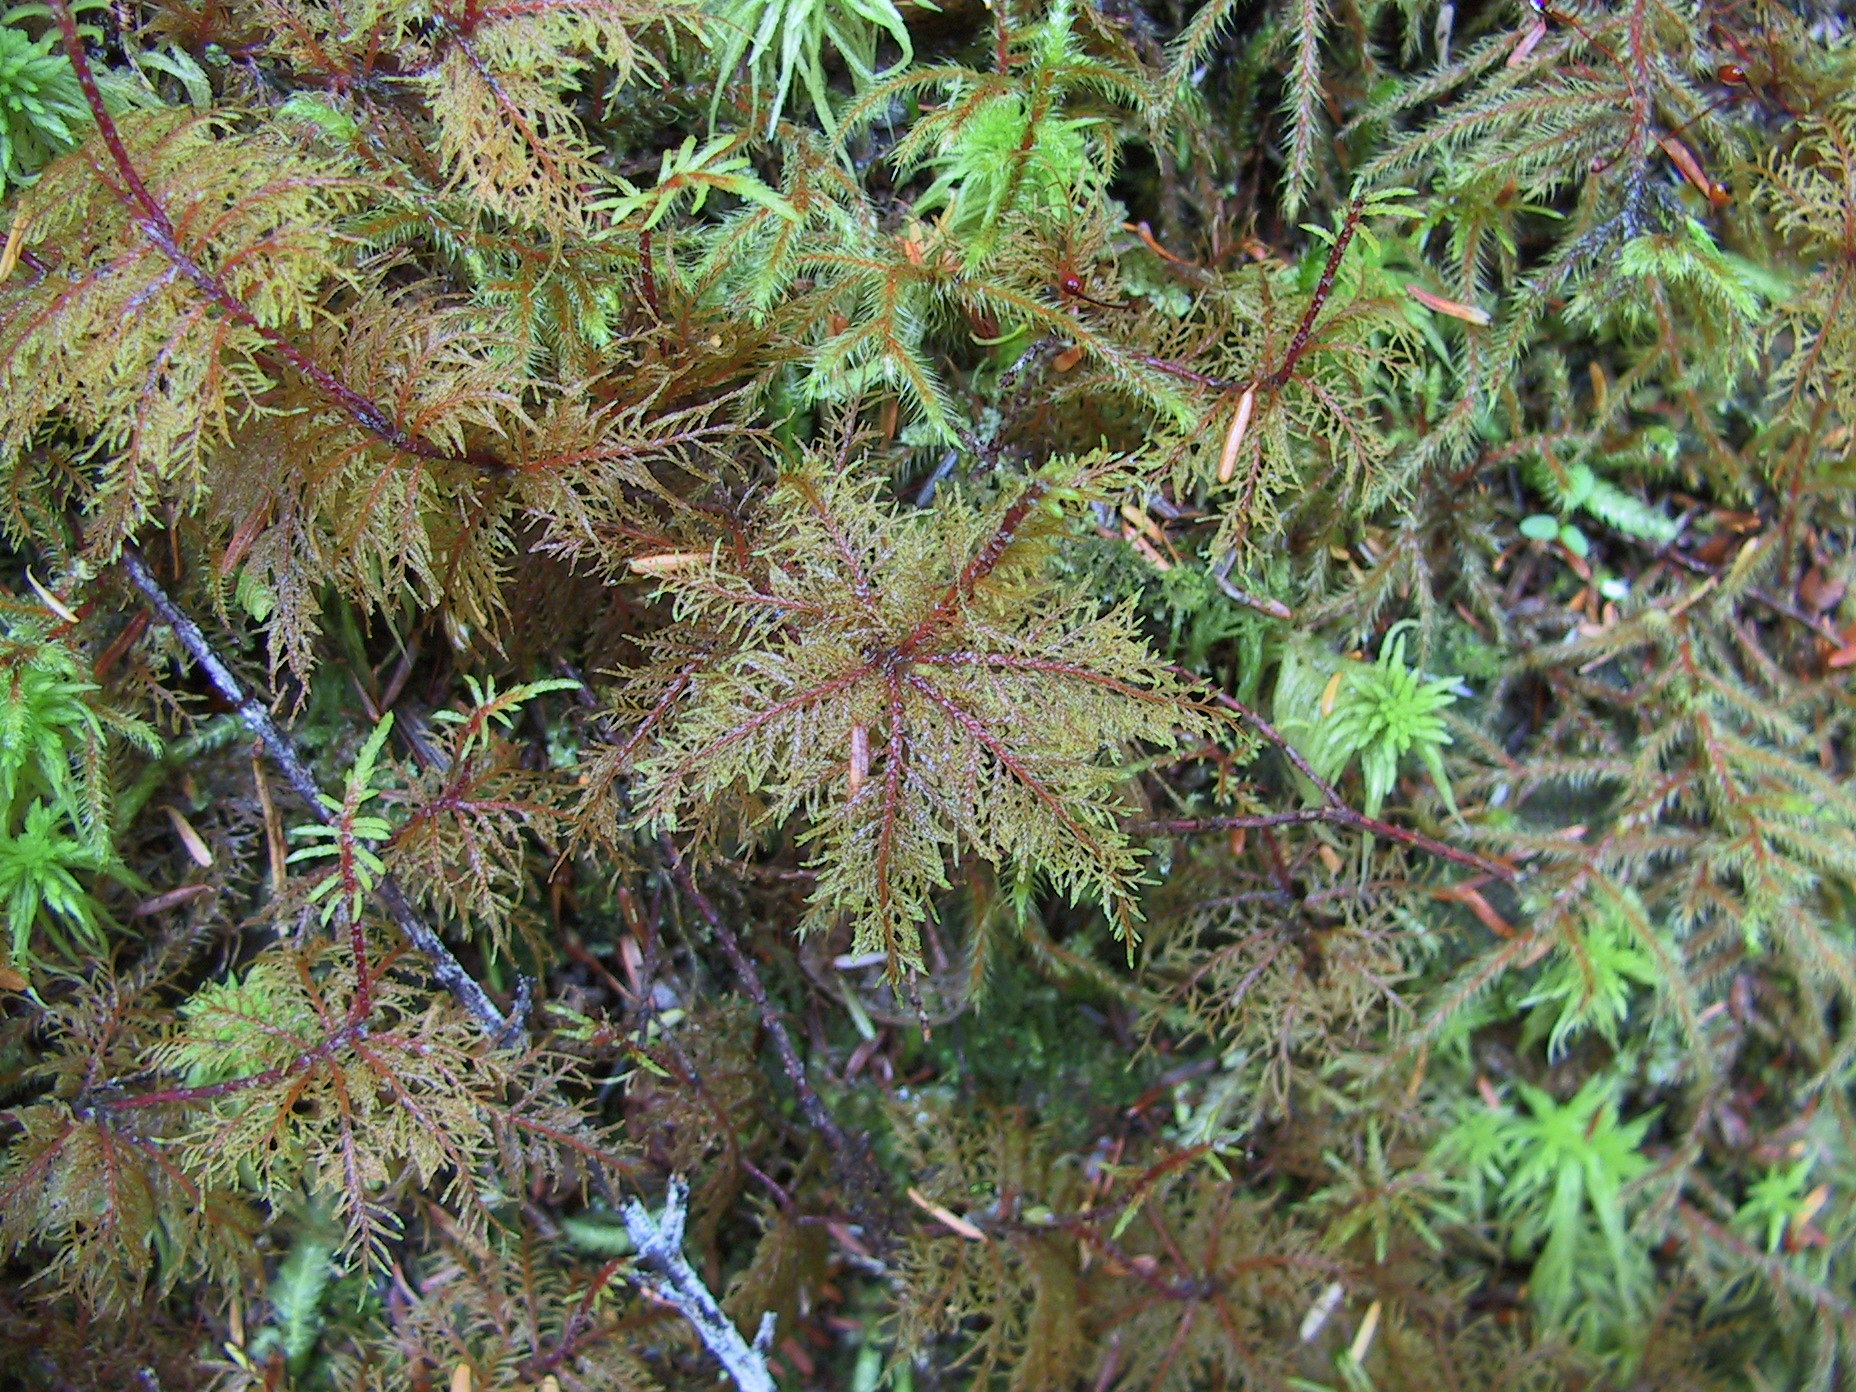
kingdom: Plantae
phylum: Bryophyta
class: Bryopsida
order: Hypnales
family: Hylocomiaceae
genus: Hylocomium
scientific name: Hylocomium splendens
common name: Stairstep moss
